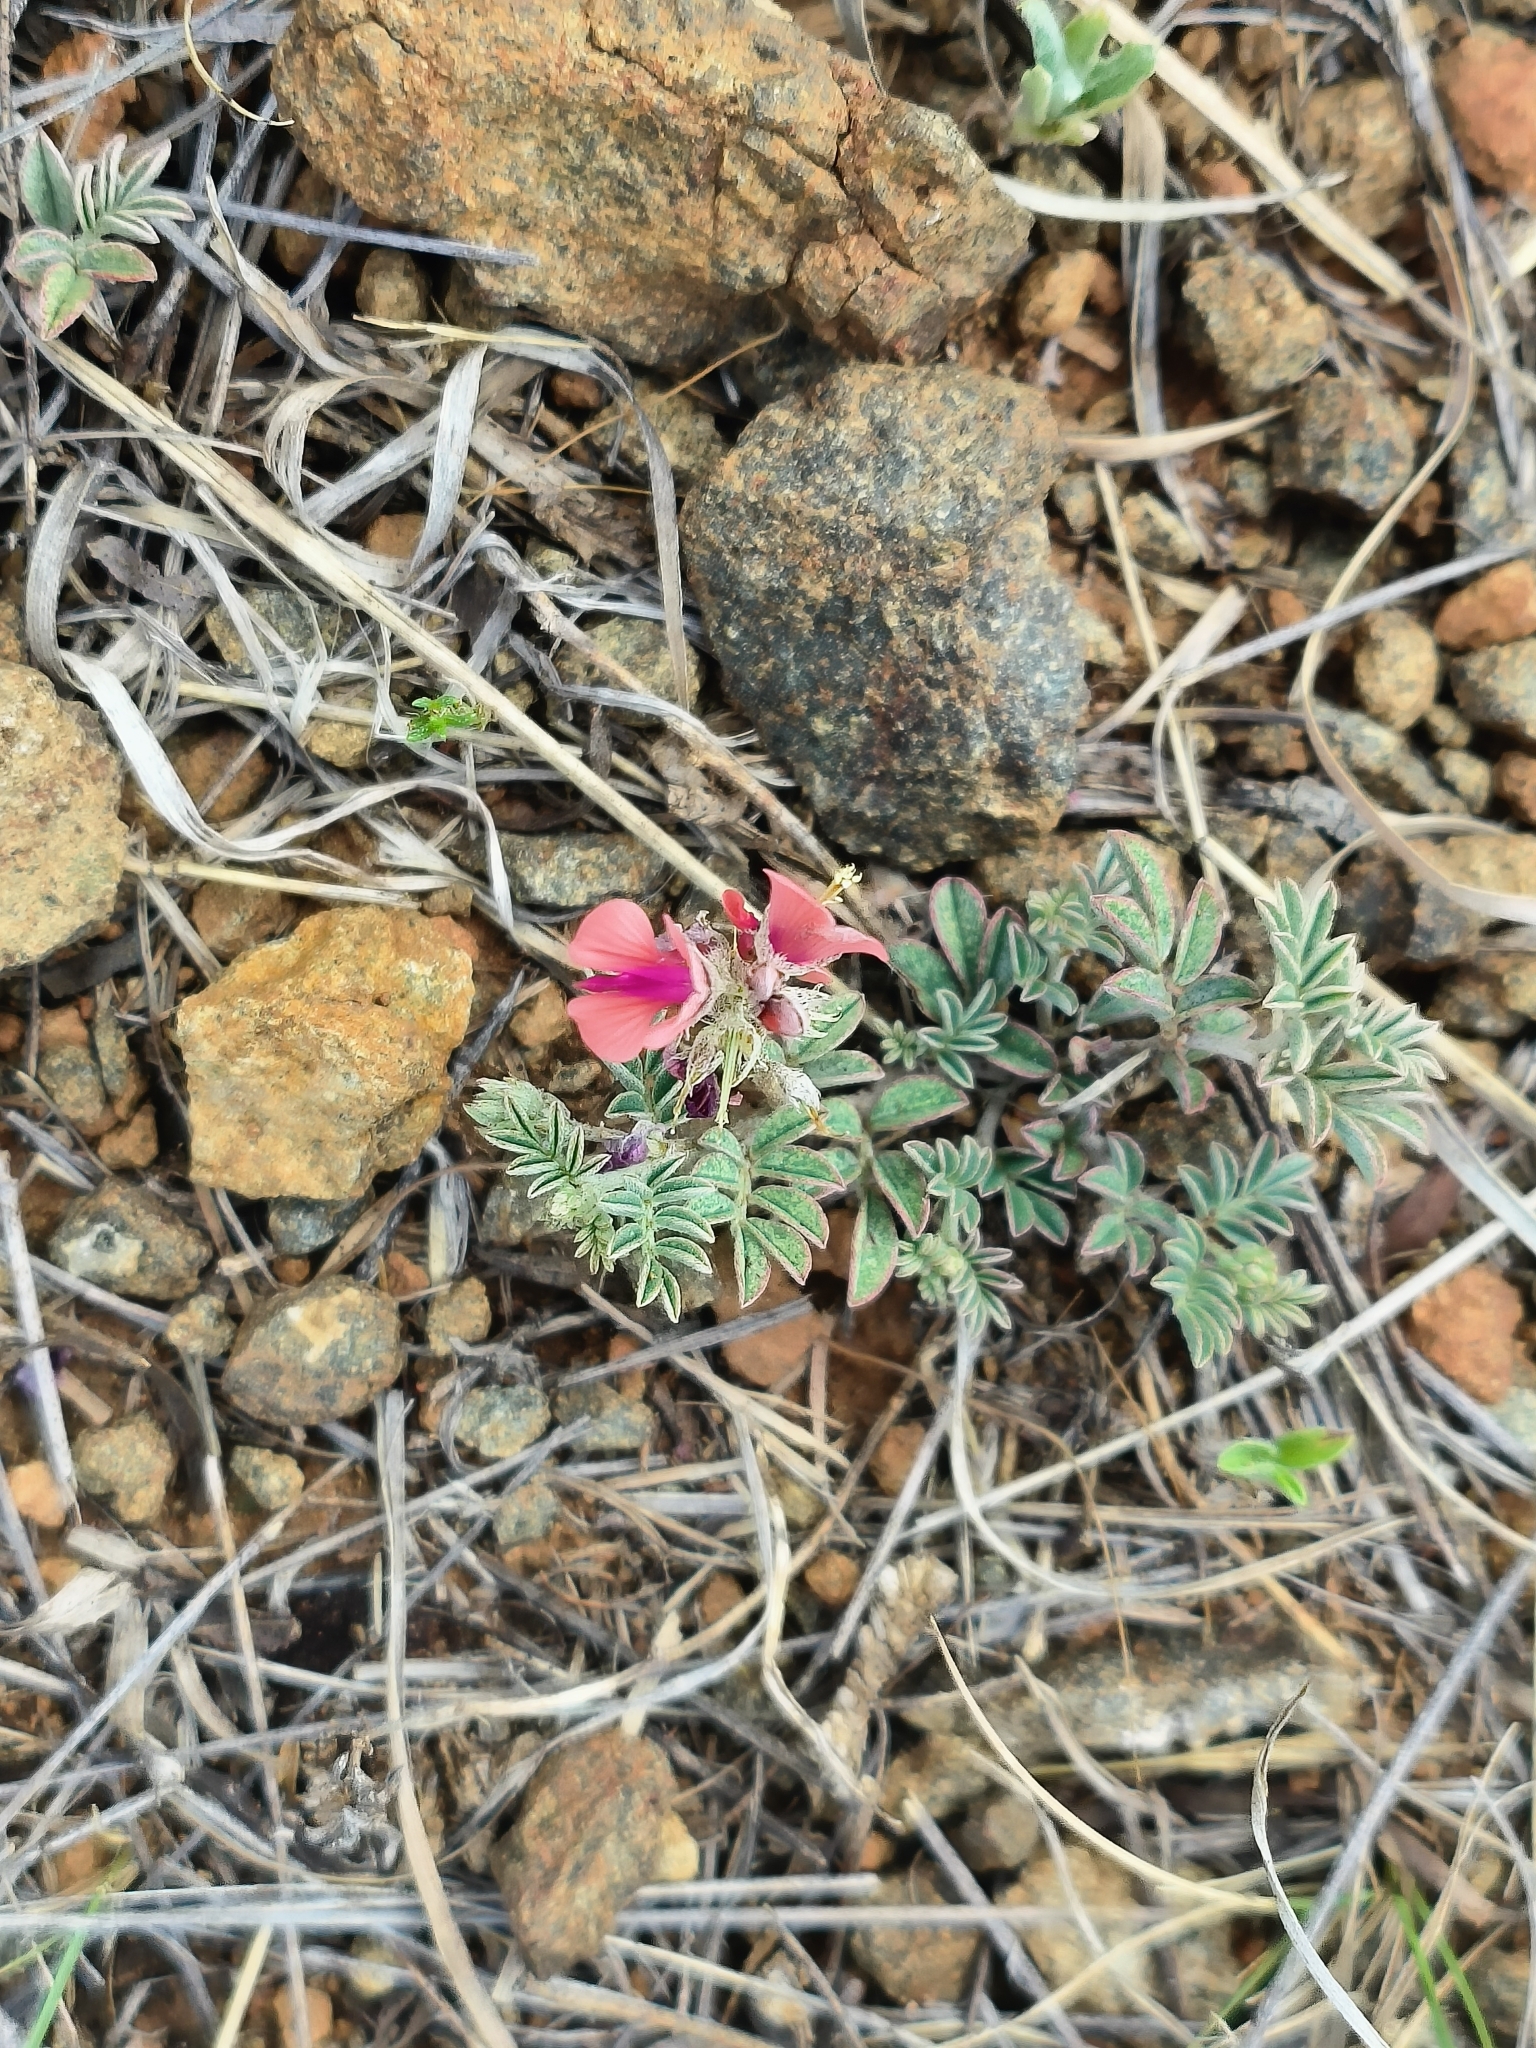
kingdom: Plantae
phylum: Tracheophyta
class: Magnoliopsida
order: Fabales
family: Fabaceae
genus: Indigofera
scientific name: Indigofera alternans
